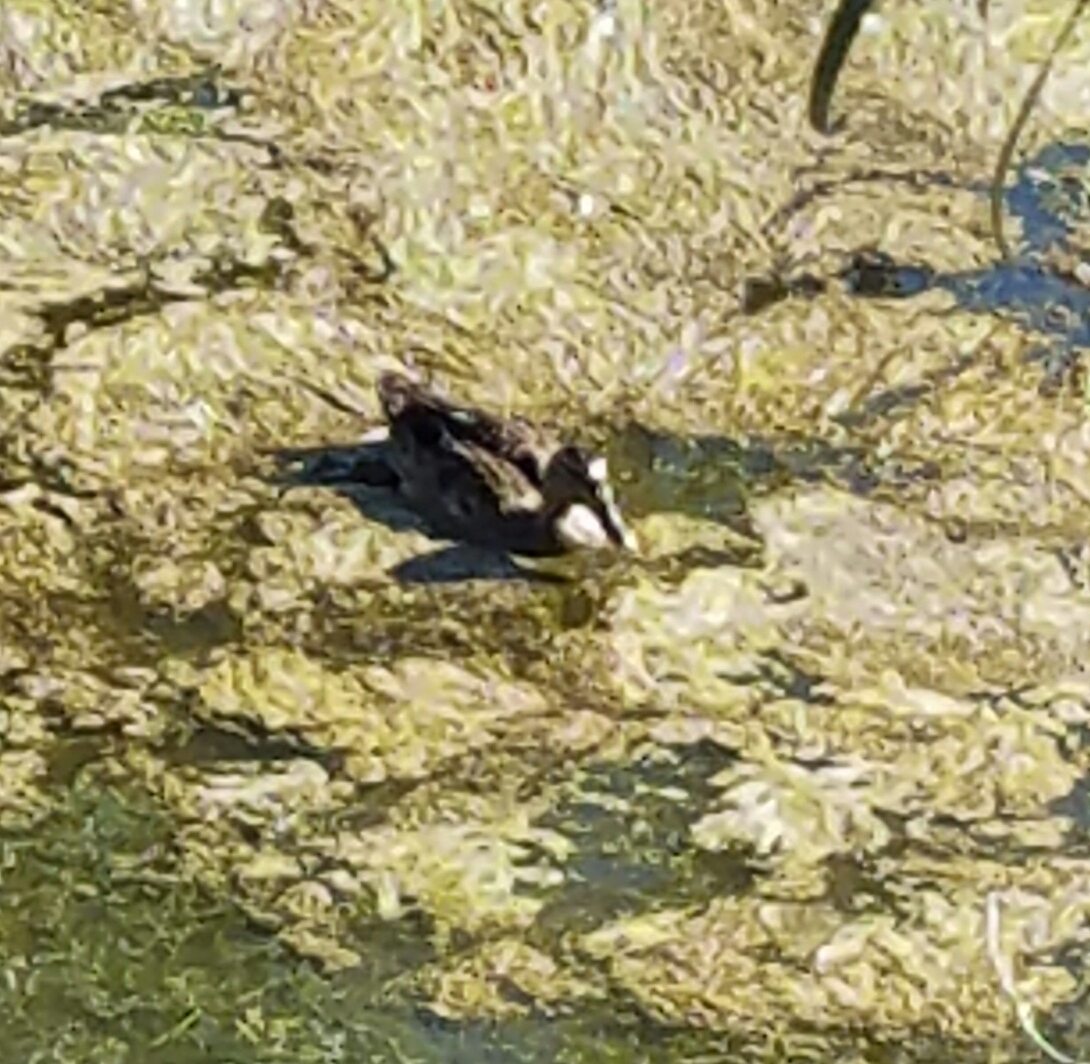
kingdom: Animalia
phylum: Chordata
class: Aves
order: Anseriformes
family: Anatidae
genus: Anas
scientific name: Anas platyrhynchos
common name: Mallard
